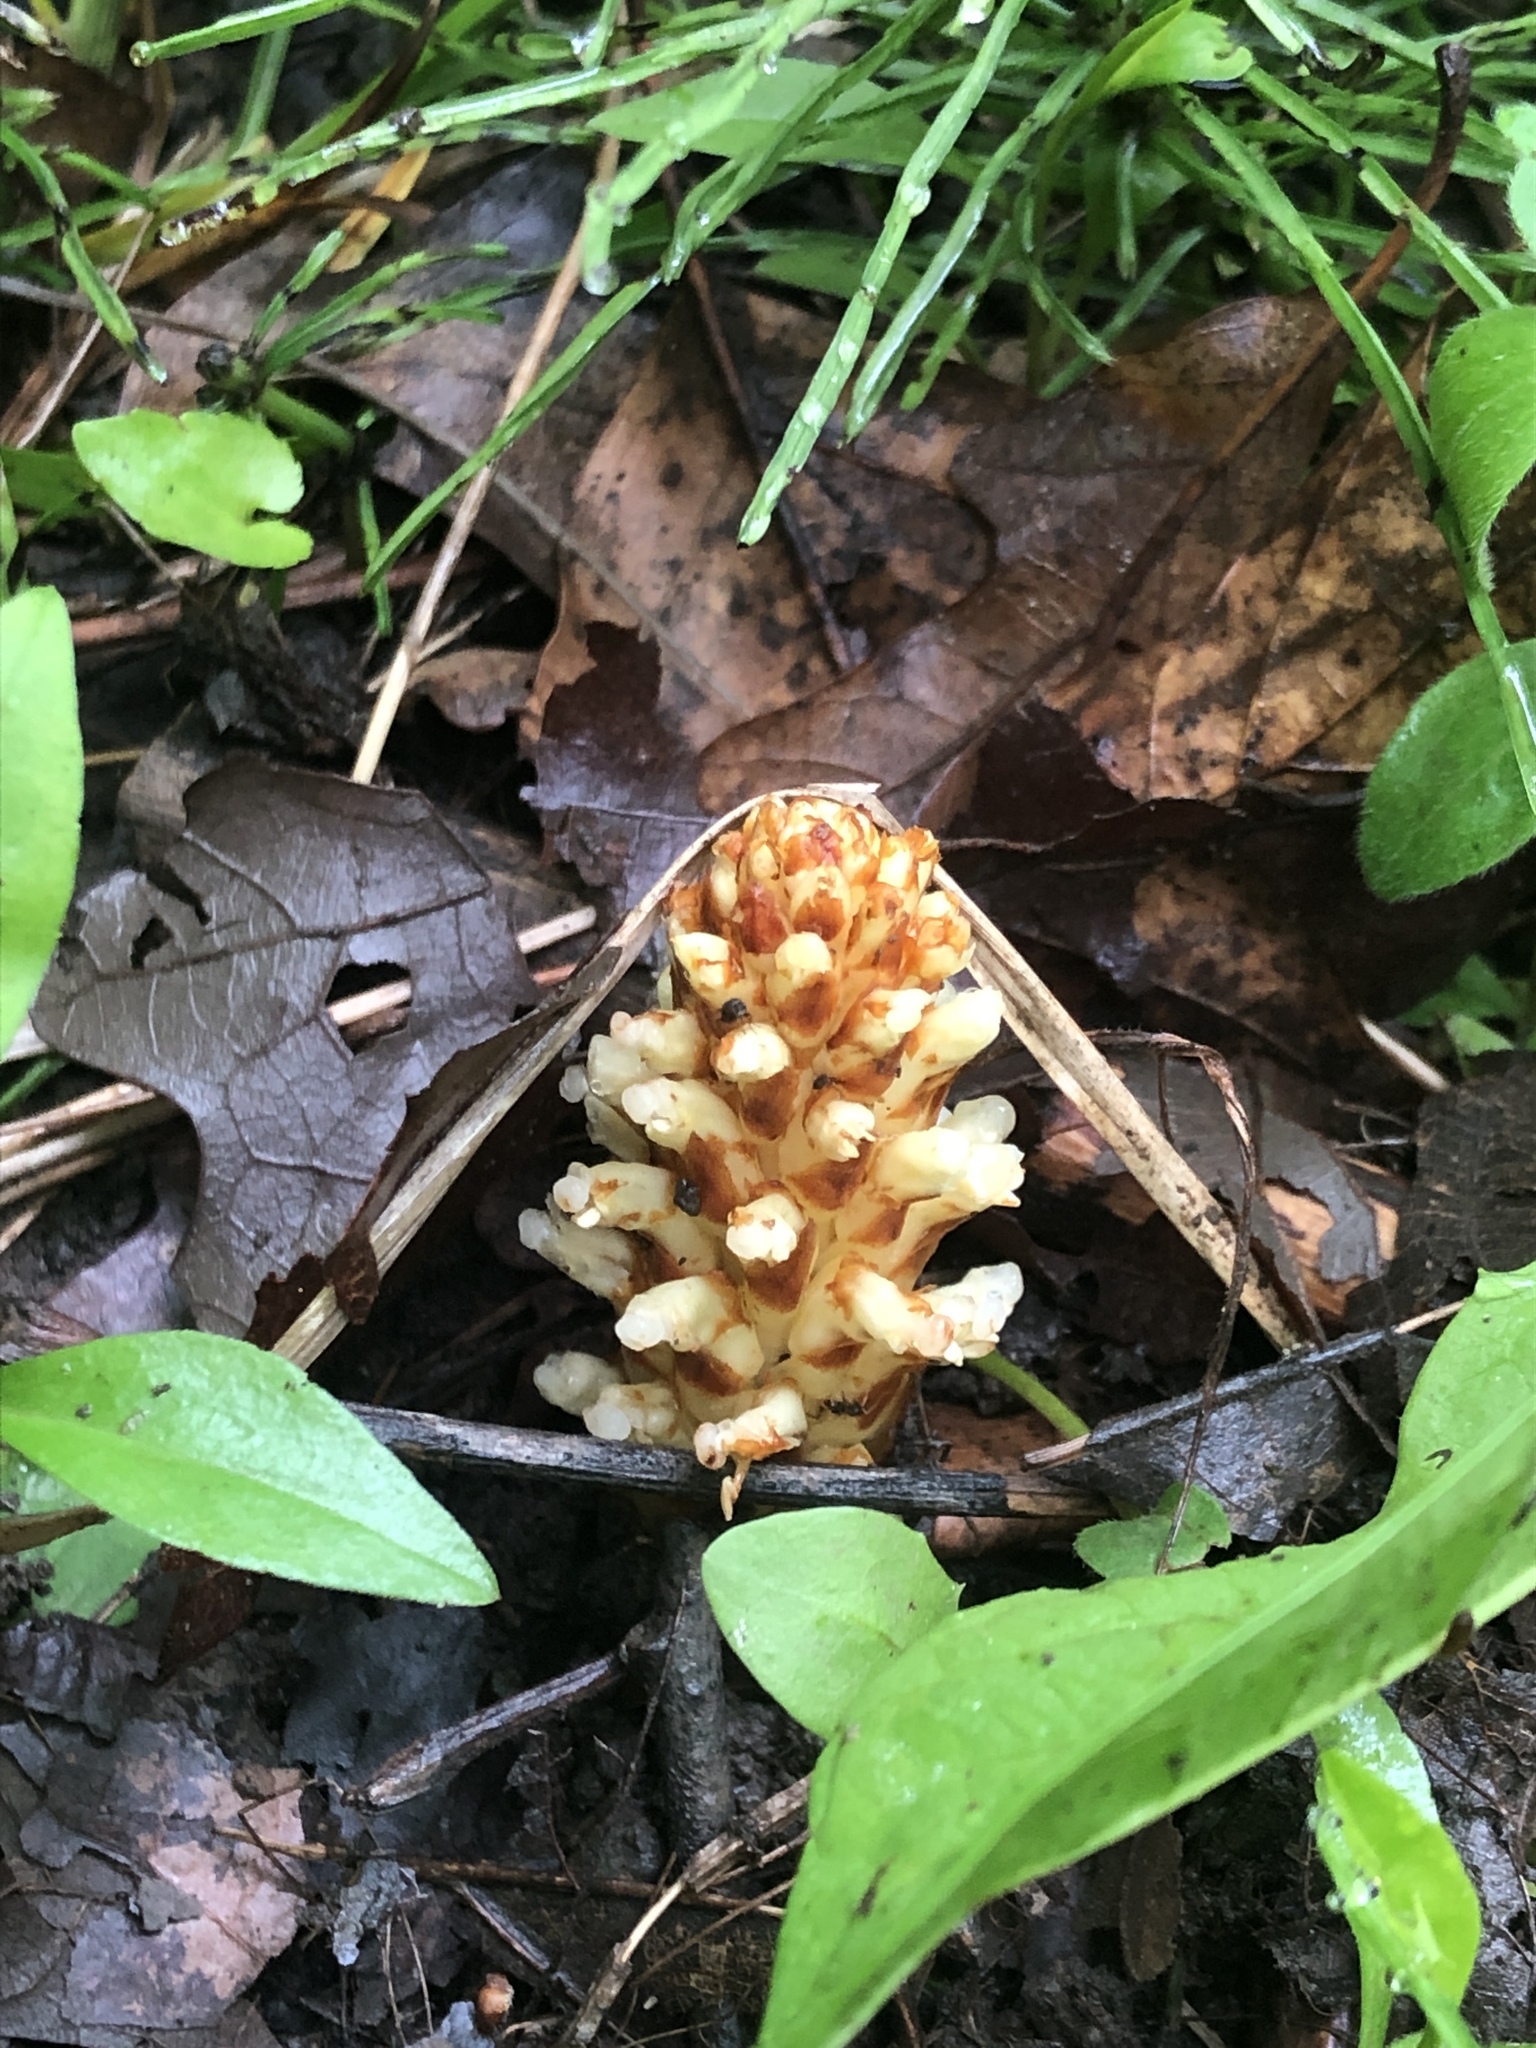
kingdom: Plantae
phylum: Tracheophyta
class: Magnoliopsida
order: Lamiales
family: Orobanchaceae
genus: Conopholis
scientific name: Conopholis americana
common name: American cancer-root
